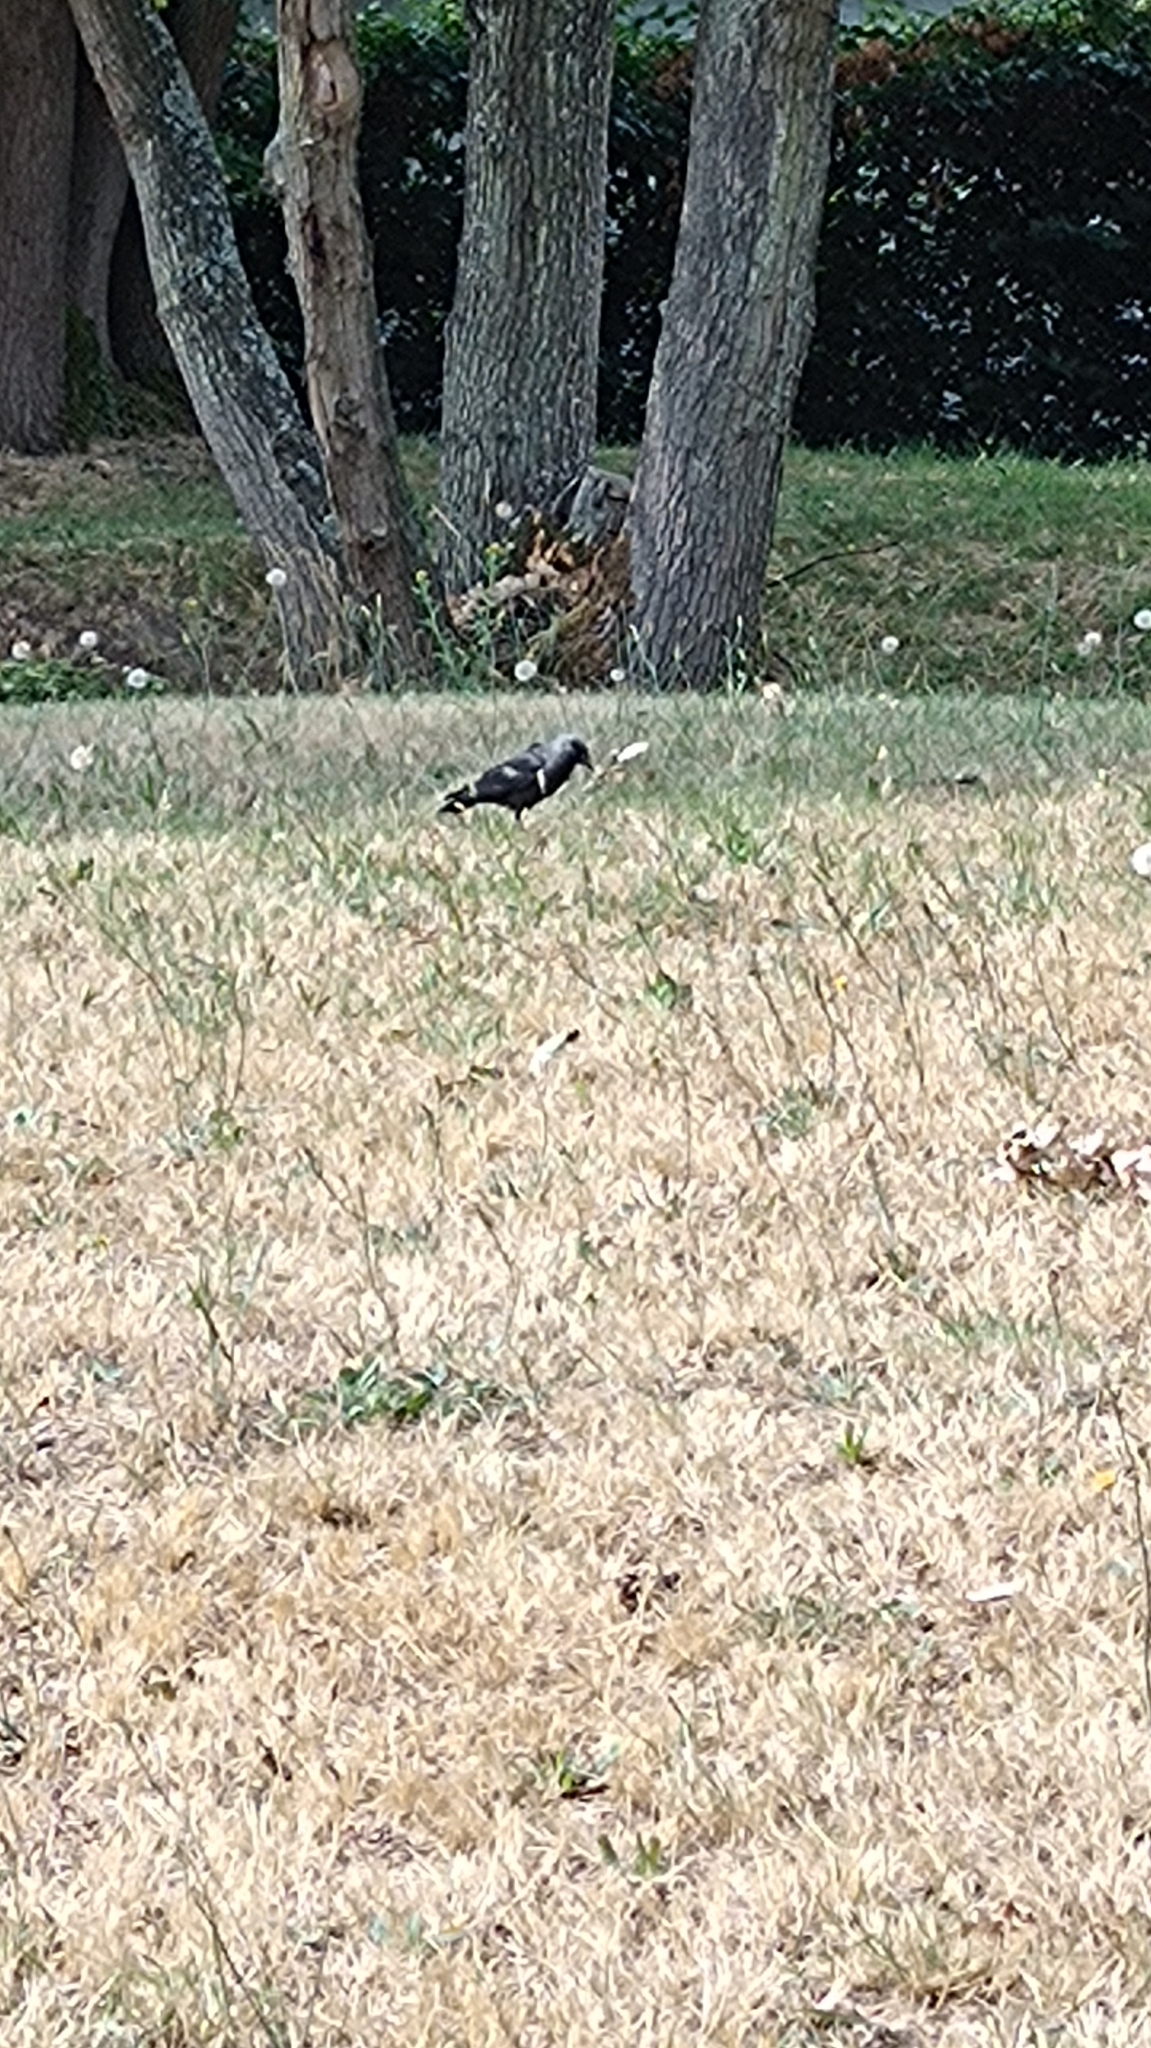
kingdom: Animalia
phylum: Chordata
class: Aves
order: Passeriformes
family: Corvidae
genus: Coloeus
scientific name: Coloeus monedula
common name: Western jackdaw
